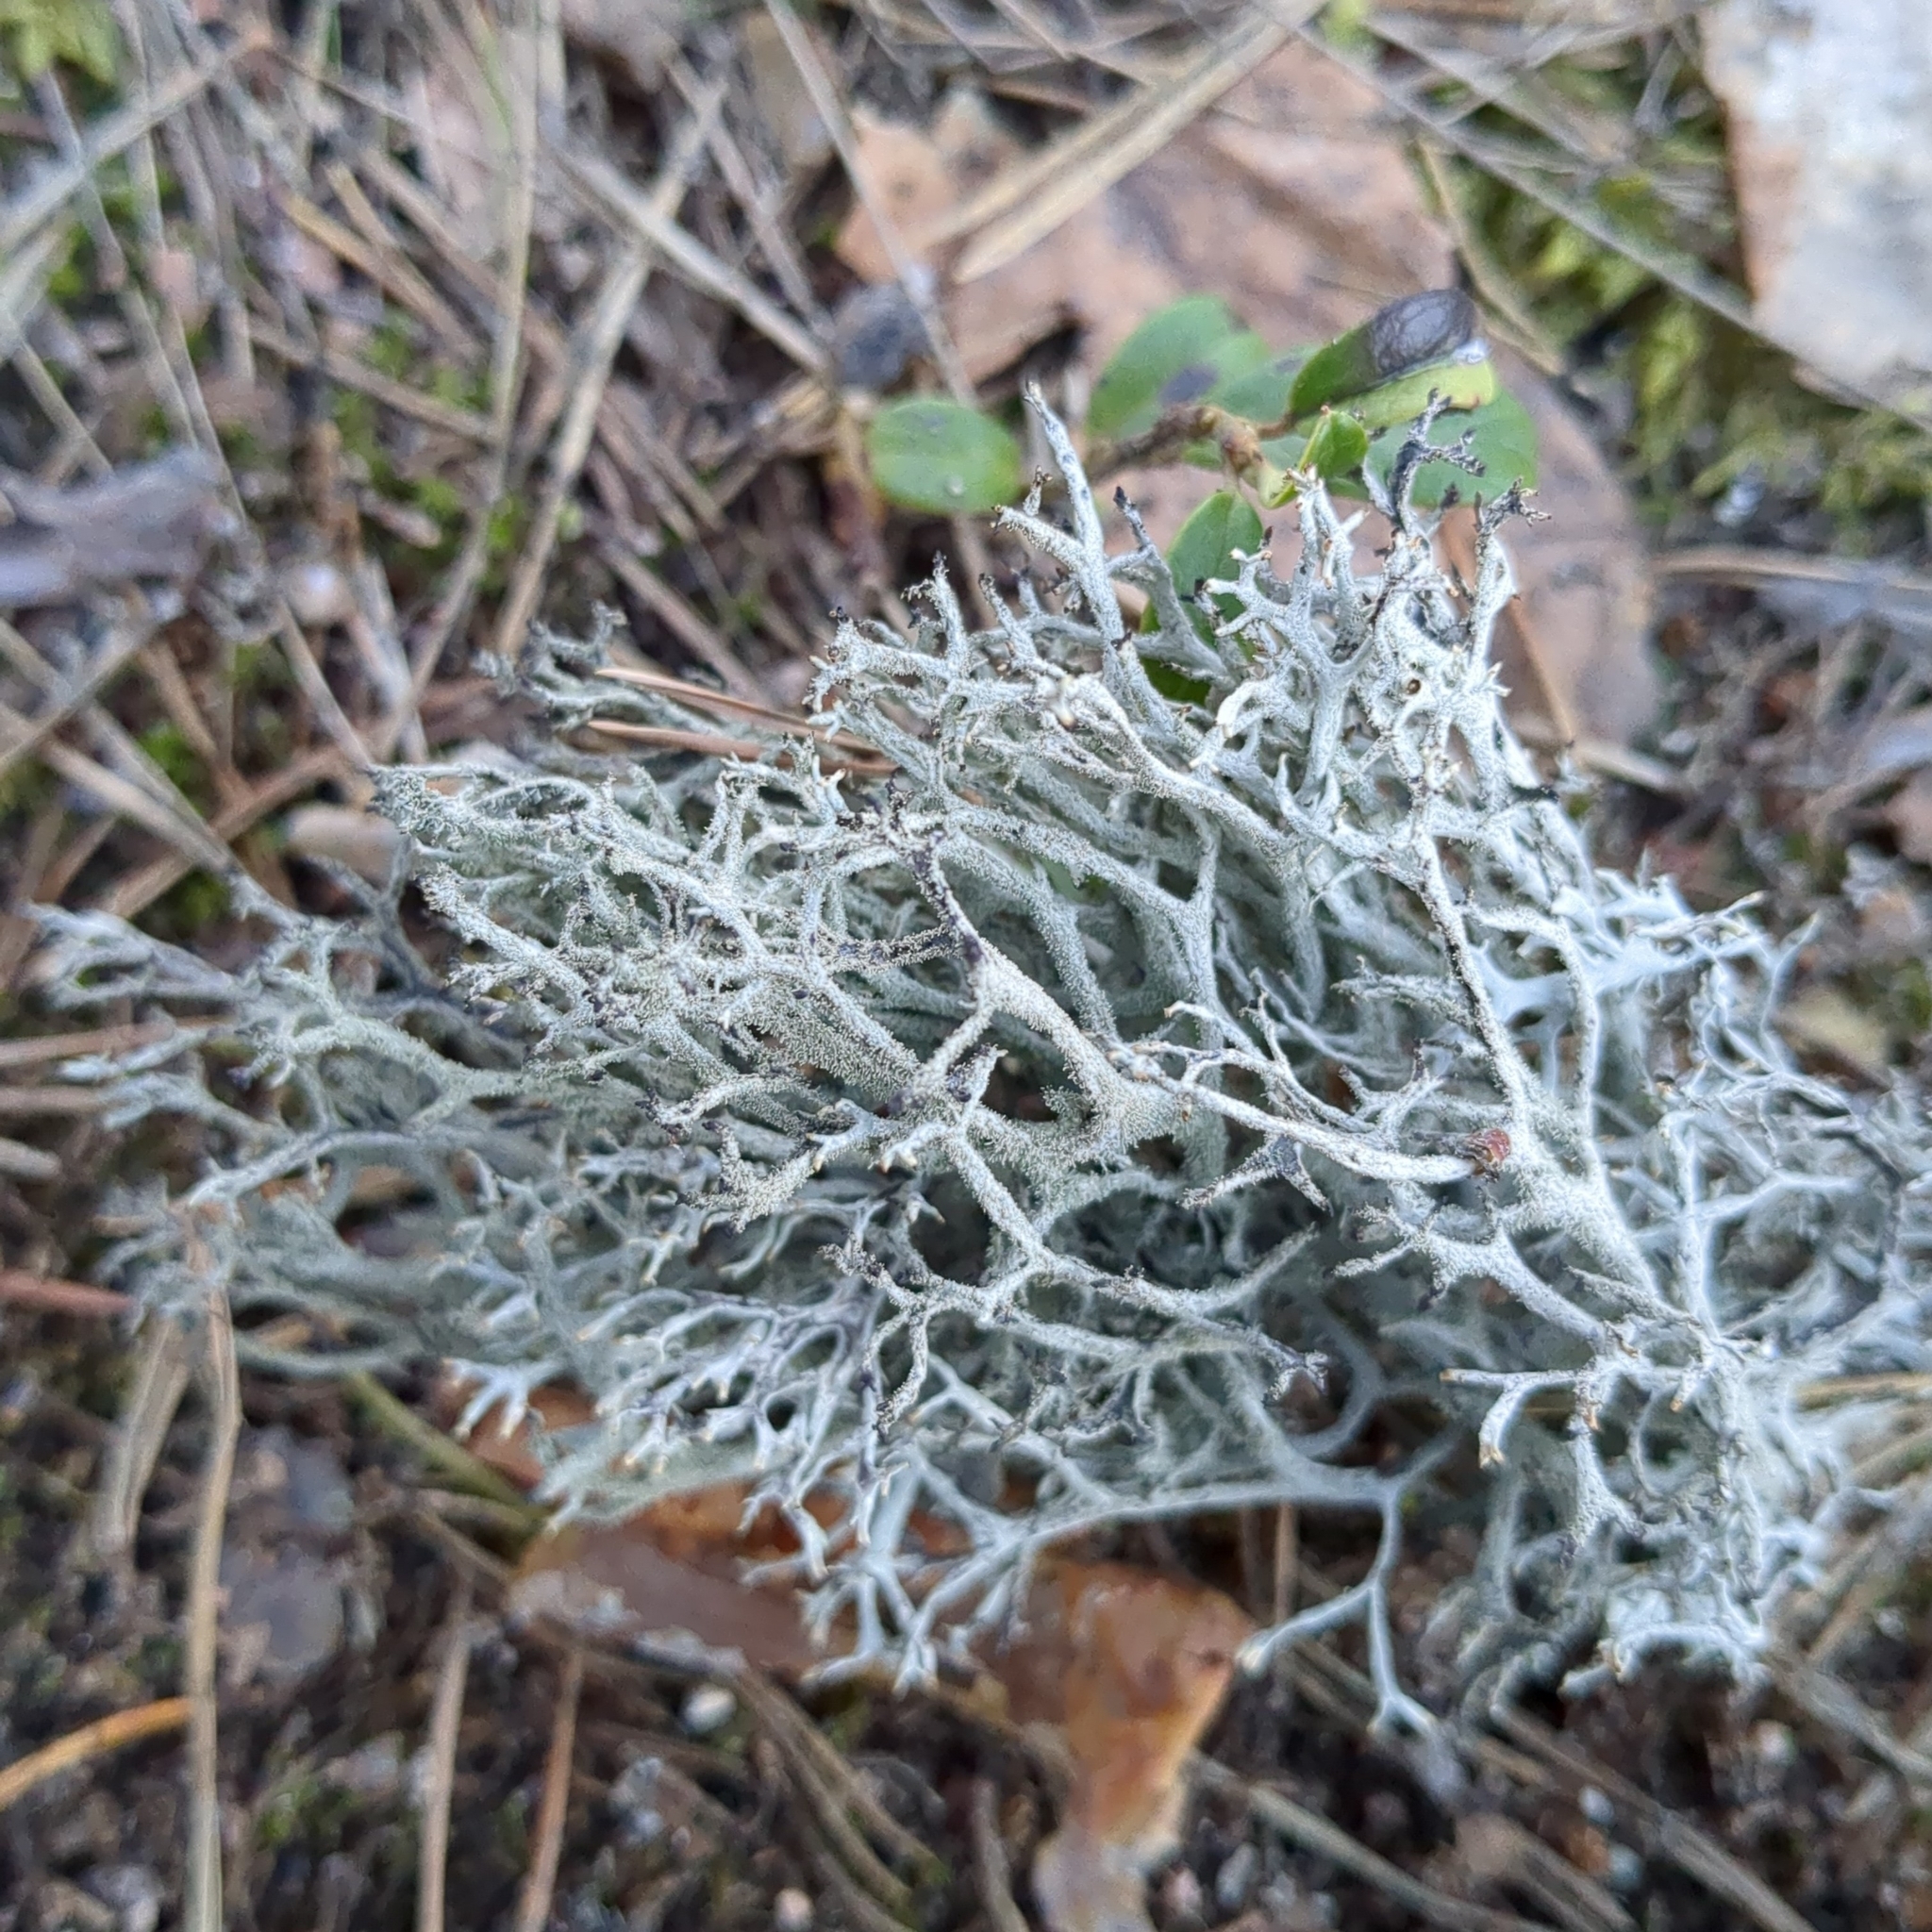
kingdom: Fungi
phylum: Ascomycota
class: Lecanoromycetes
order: Lecanorales
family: Parmeliaceae
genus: Pseudevernia
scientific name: Pseudevernia furfuracea
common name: Tree moss
